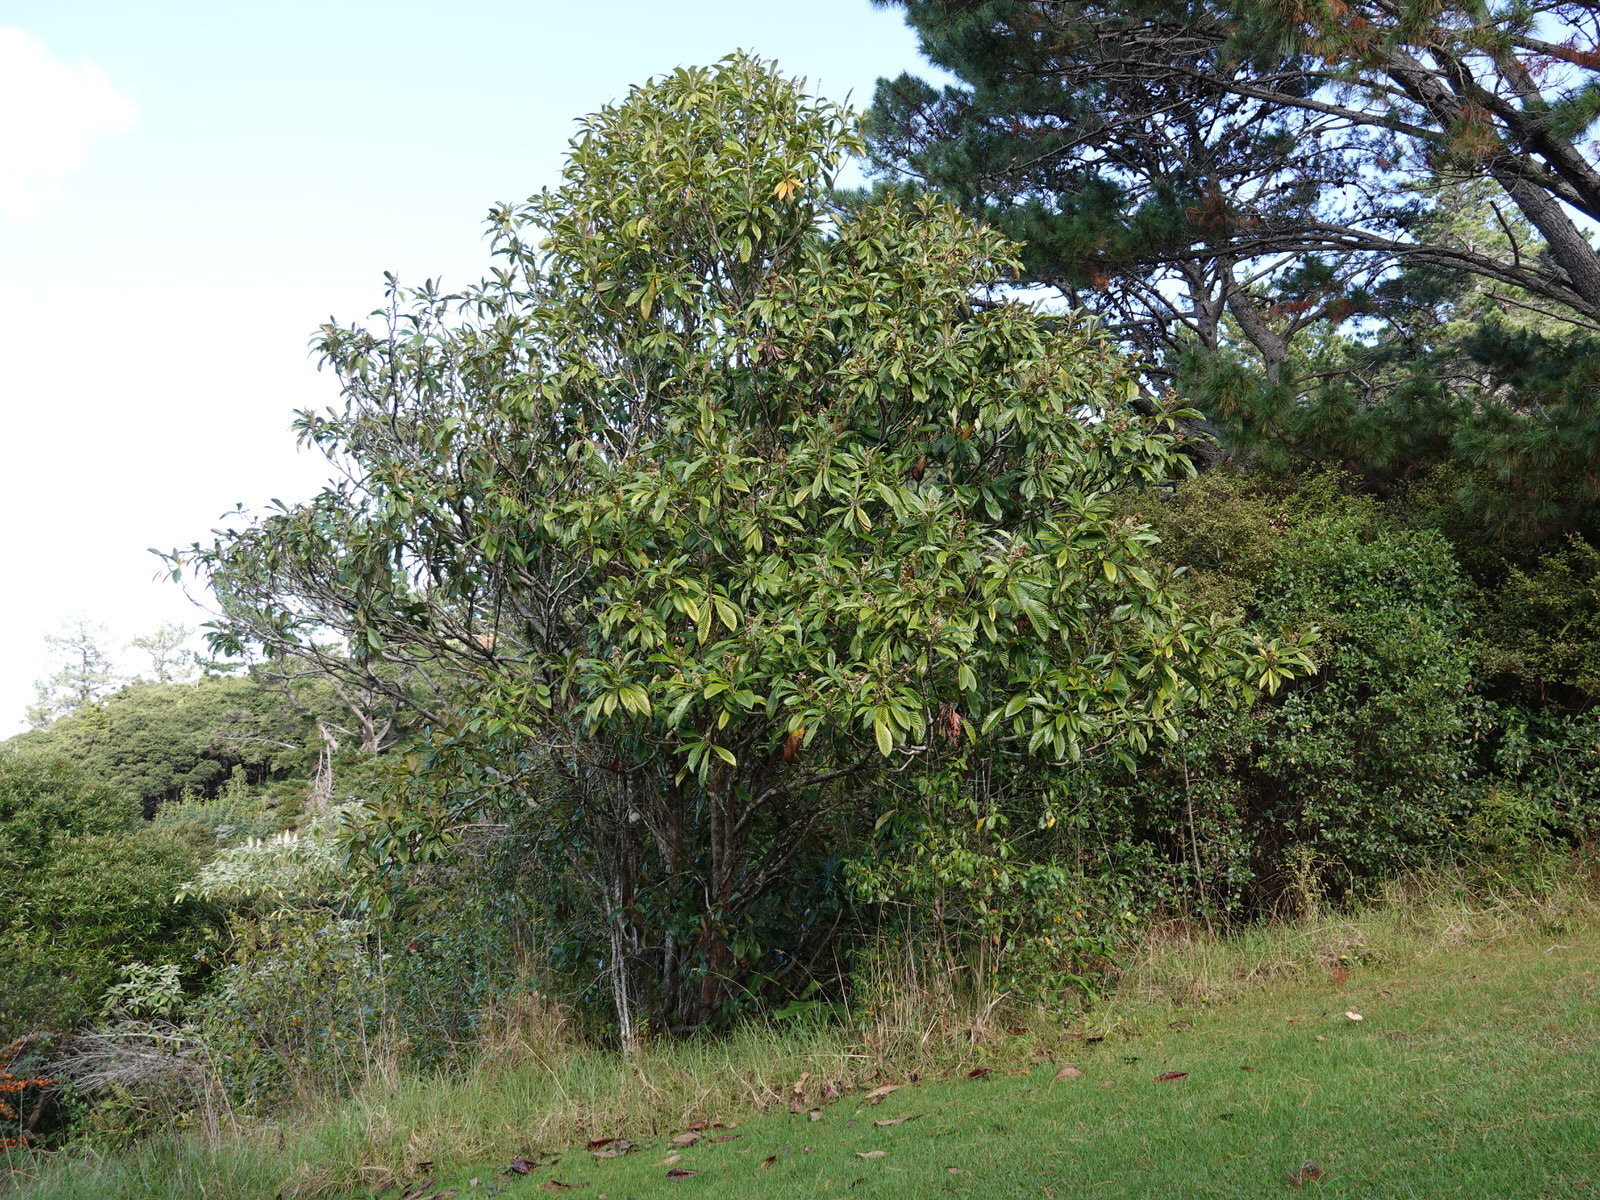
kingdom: Plantae
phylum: Tracheophyta
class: Magnoliopsida
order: Rosales
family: Rosaceae
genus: Rhaphiolepis
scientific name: Rhaphiolepis bibas
